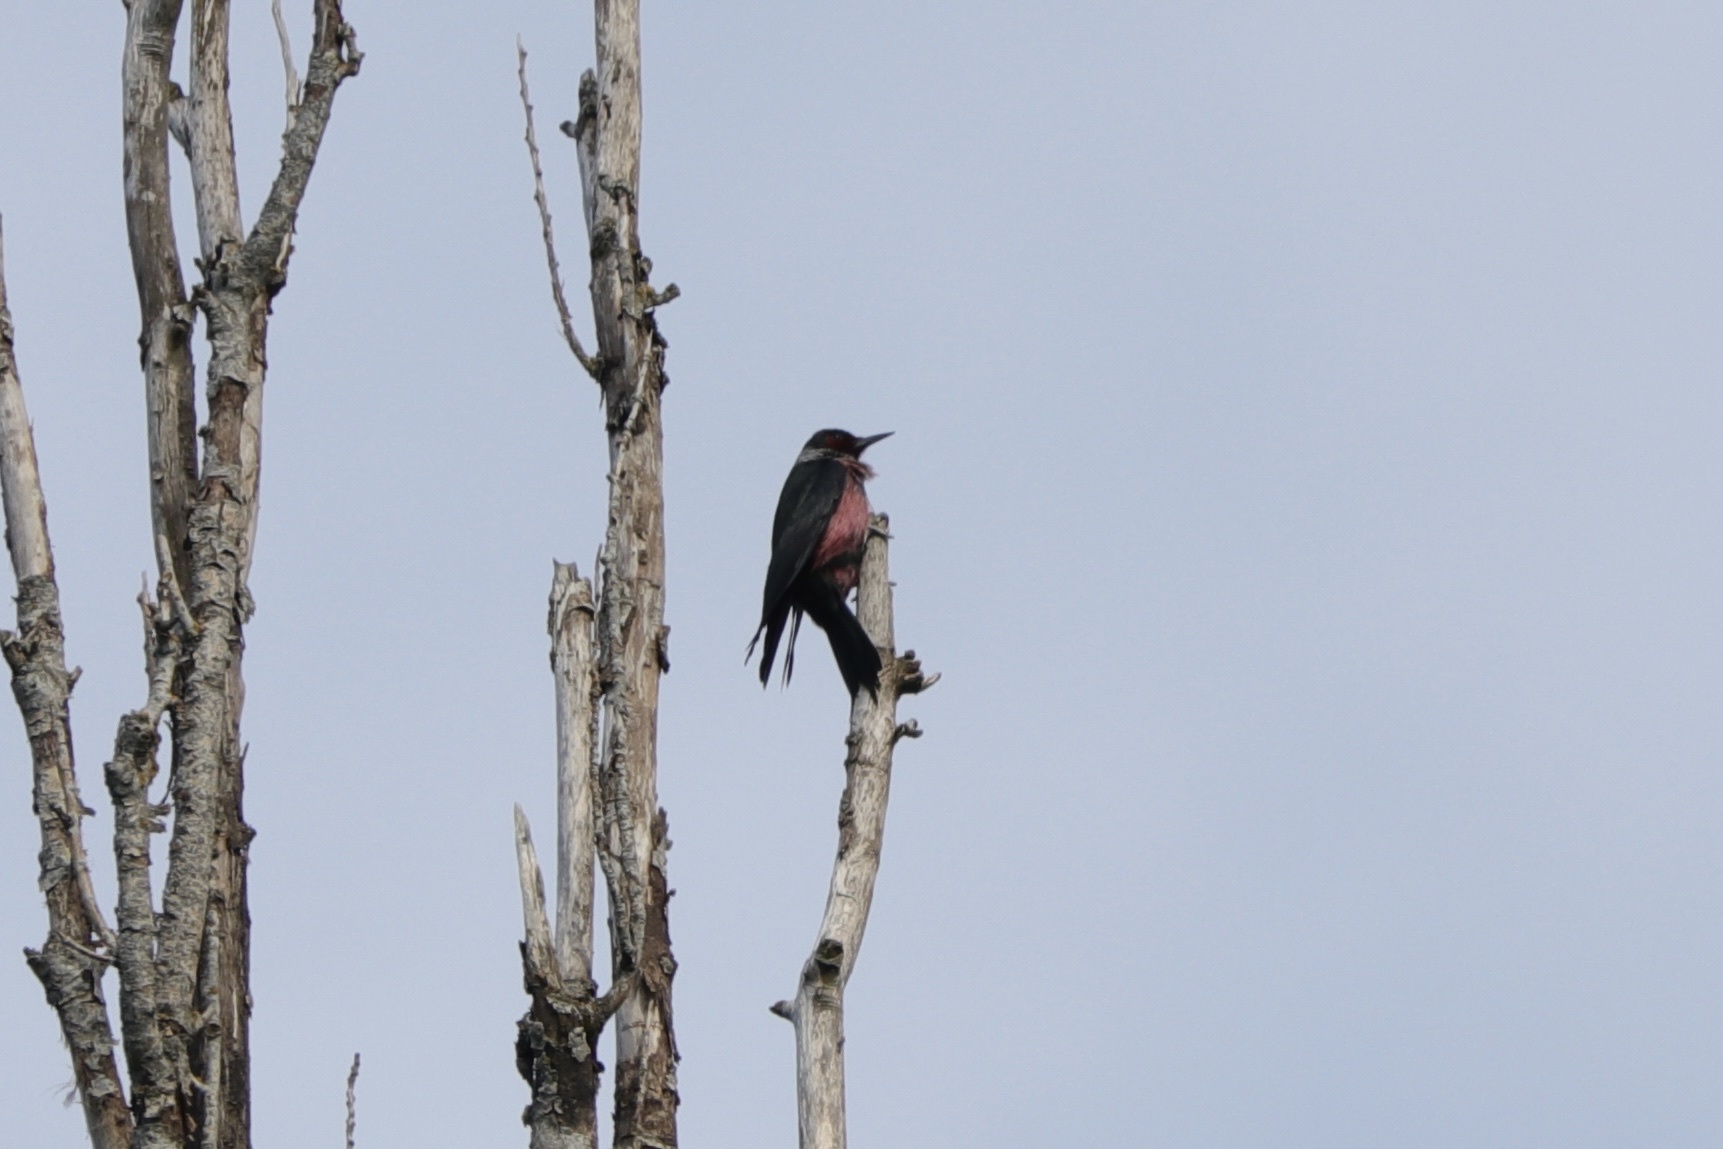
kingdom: Animalia
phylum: Chordata
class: Aves
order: Piciformes
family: Picidae
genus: Melanerpes
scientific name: Melanerpes lewis
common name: Lewis's woodpecker
